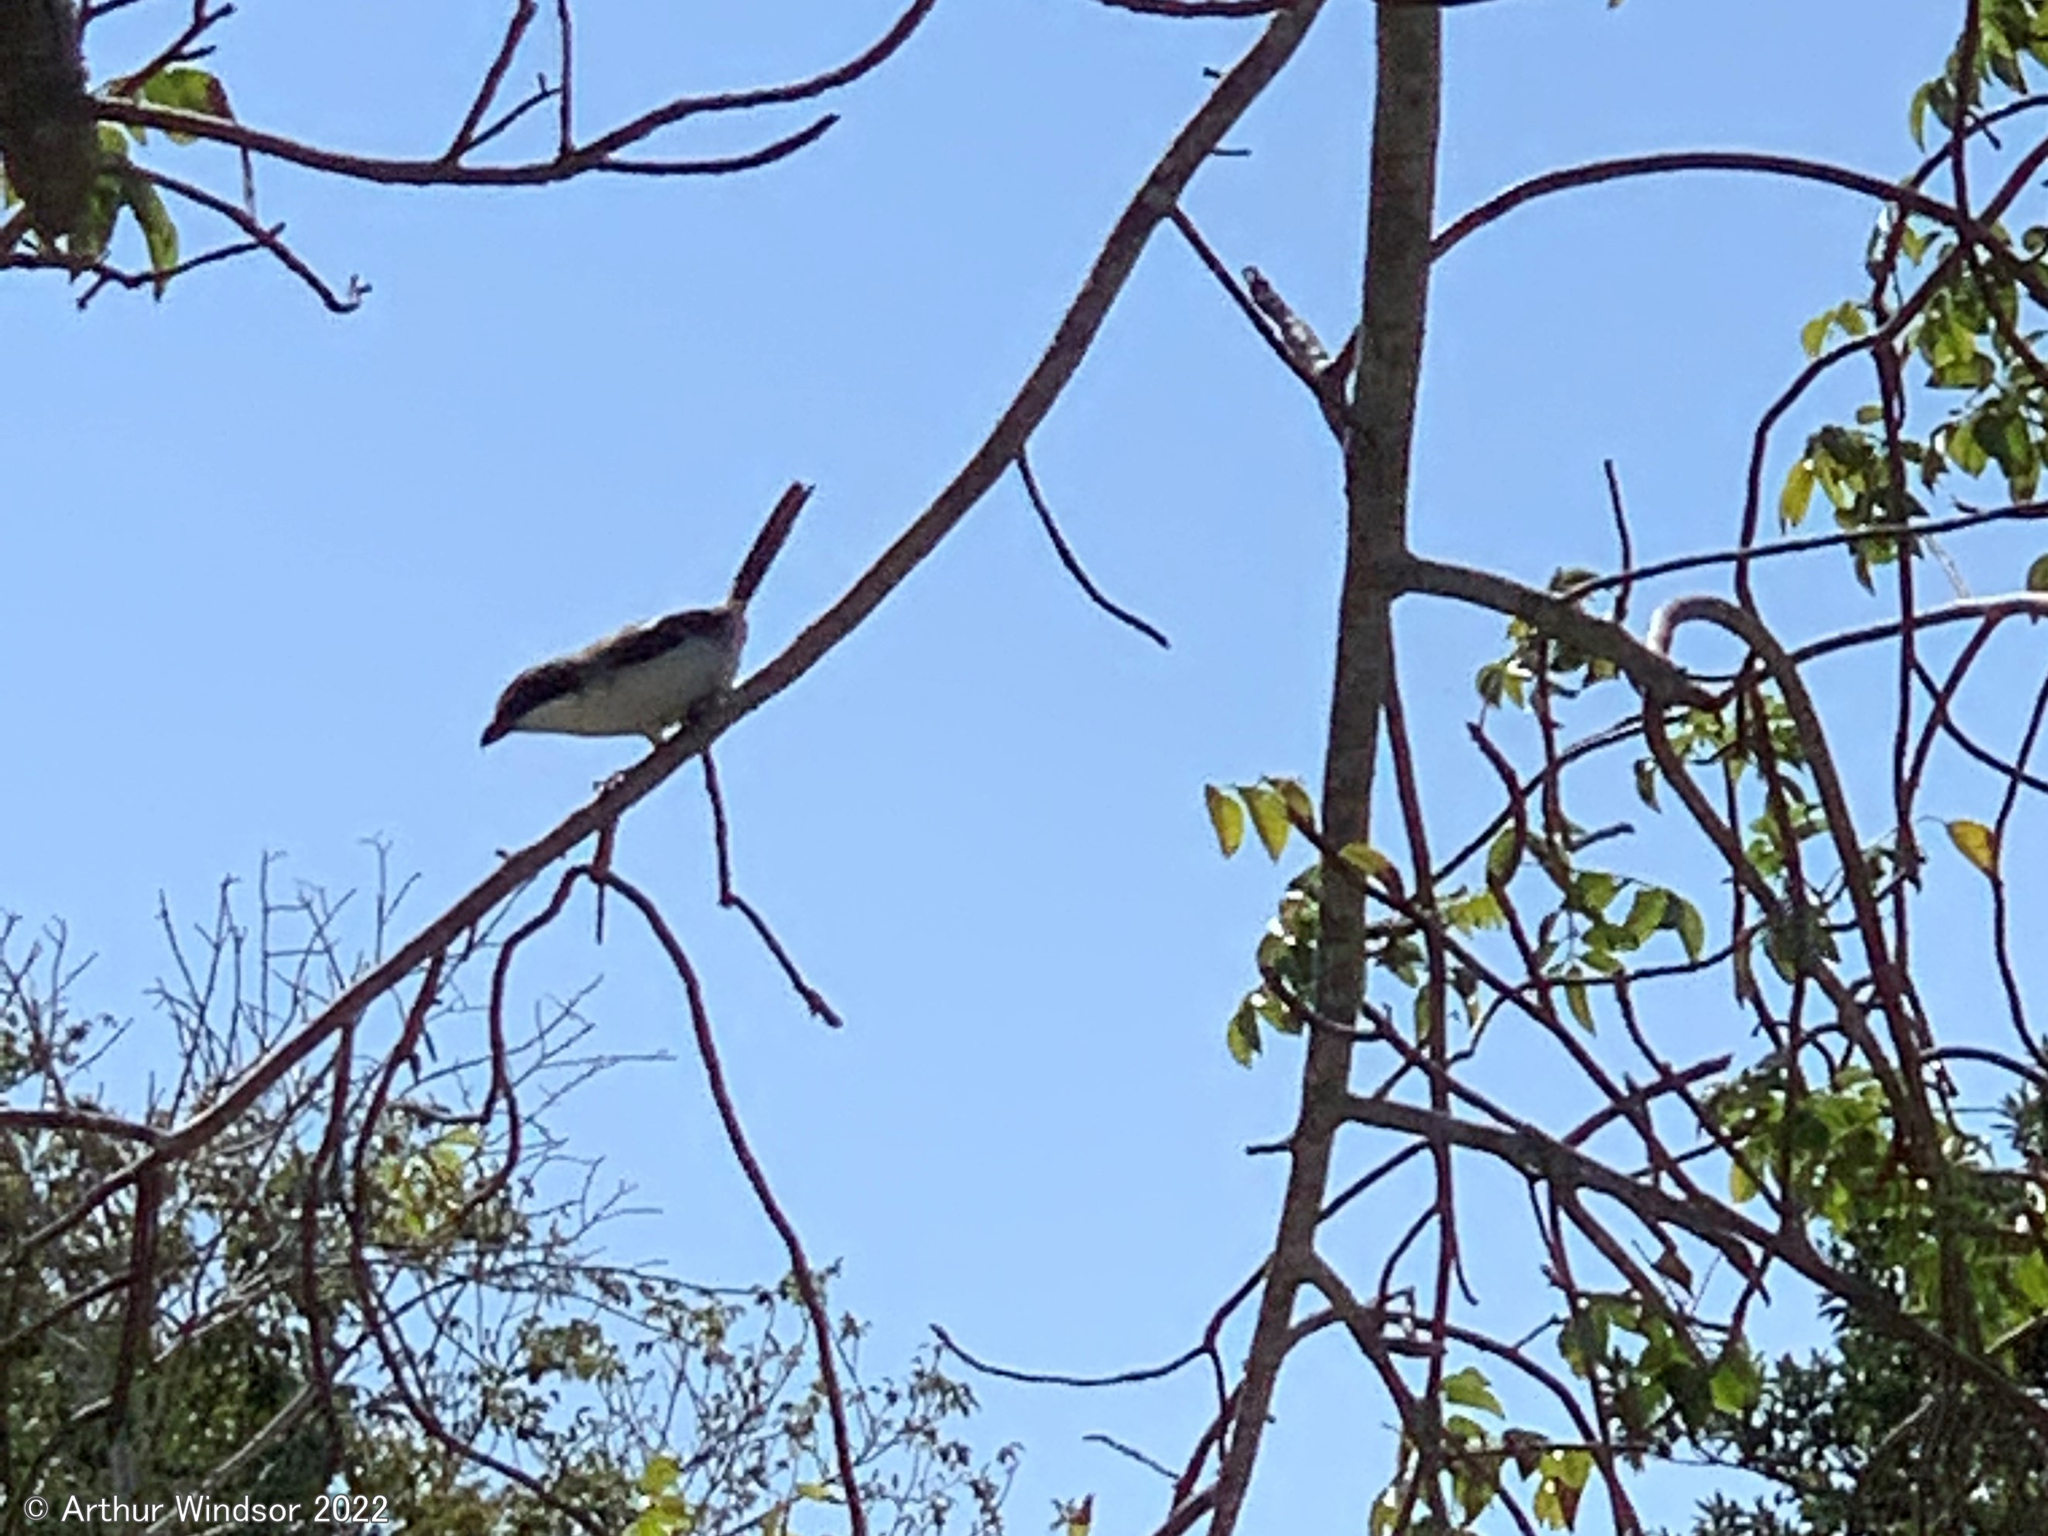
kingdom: Animalia
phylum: Chordata
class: Aves
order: Passeriformes
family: Laniidae
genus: Lanius
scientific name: Lanius ludovicianus
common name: Loggerhead shrike
